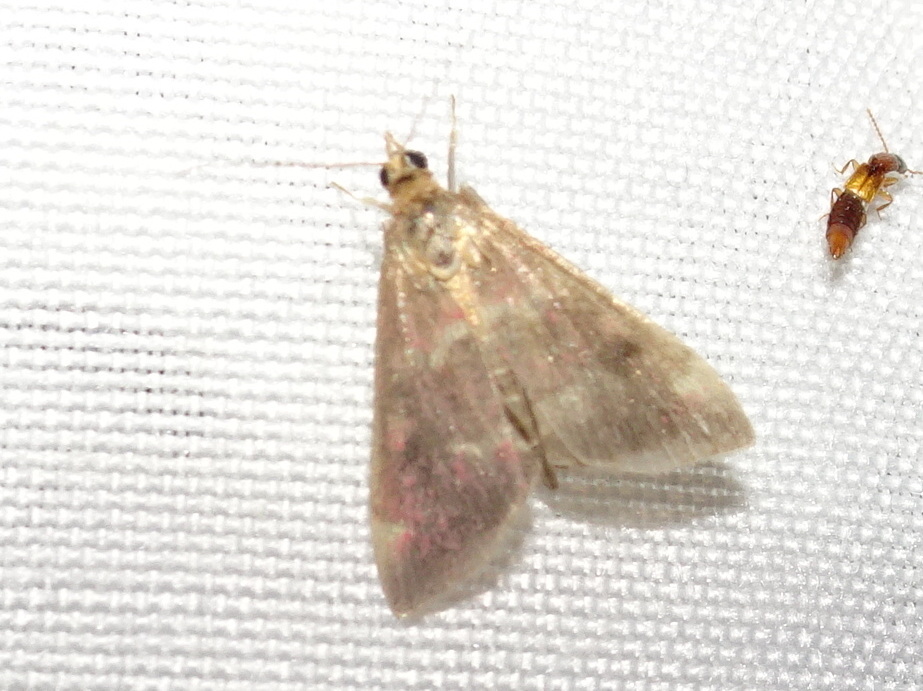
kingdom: Animalia
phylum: Arthropoda
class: Insecta
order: Lepidoptera
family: Crambidae
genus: Pyrausta
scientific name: Pyrausta signatalis
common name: Raspberry pyrausta moth
